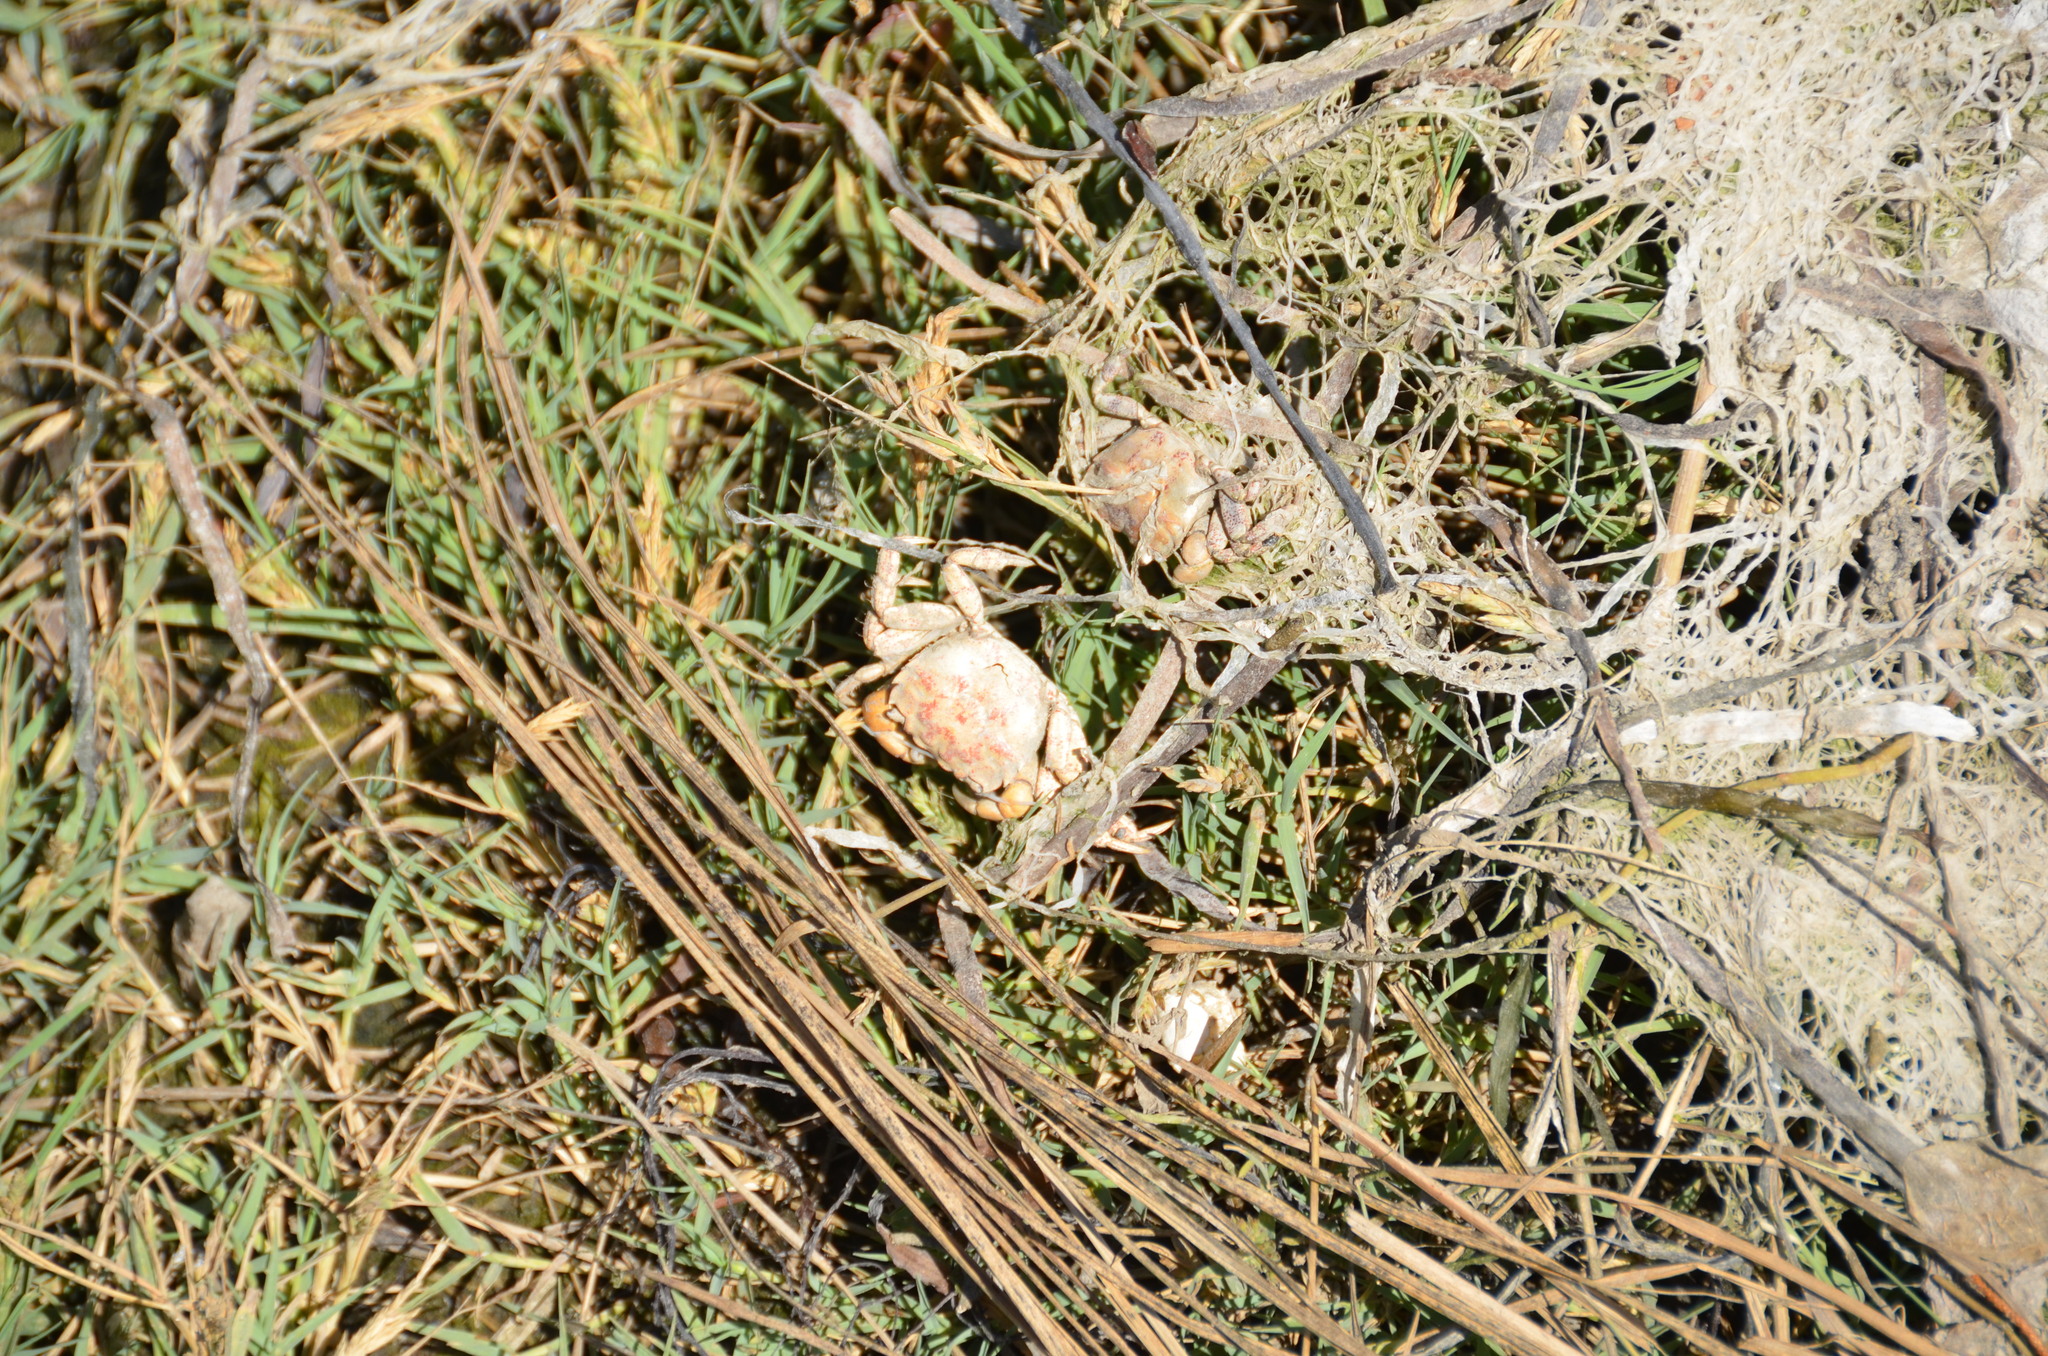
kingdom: Animalia
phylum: Arthropoda
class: Malacostraca
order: Decapoda
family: Varunidae
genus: Hemigrapsus
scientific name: Hemigrapsus oregonensis
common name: Yellow shore crab
